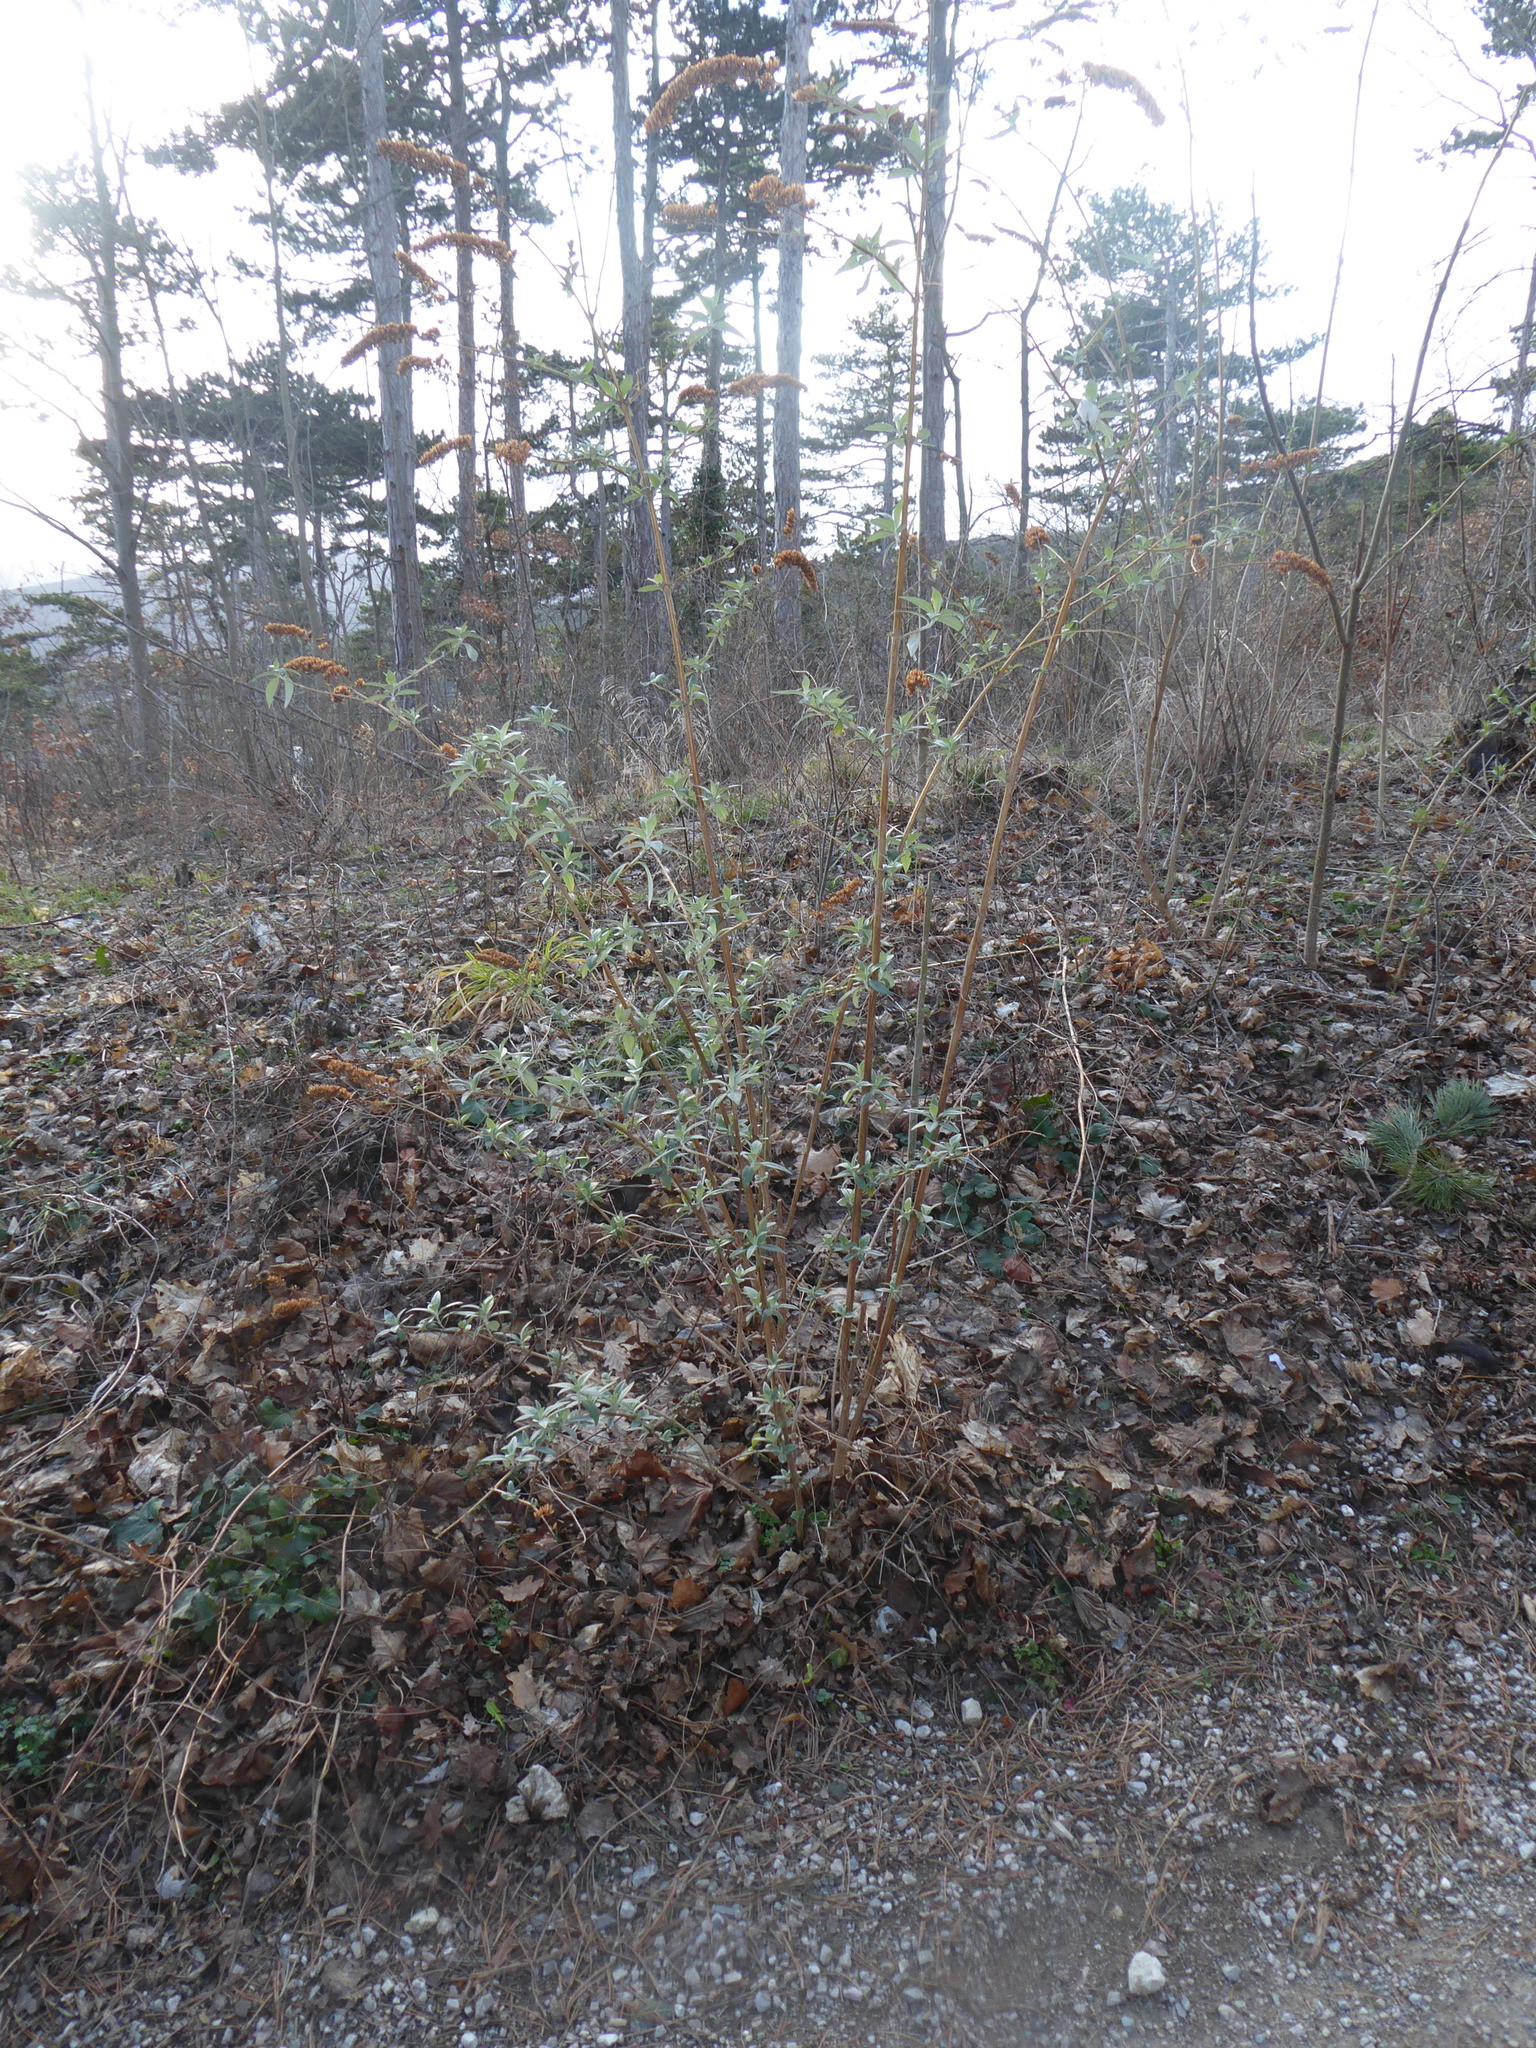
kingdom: Plantae
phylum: Tracheophyta
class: Magnoliopsida
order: Lamiales
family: Scrophulariaceae
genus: Buddleja
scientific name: Buddleja davidii
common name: Butterfly-bush
